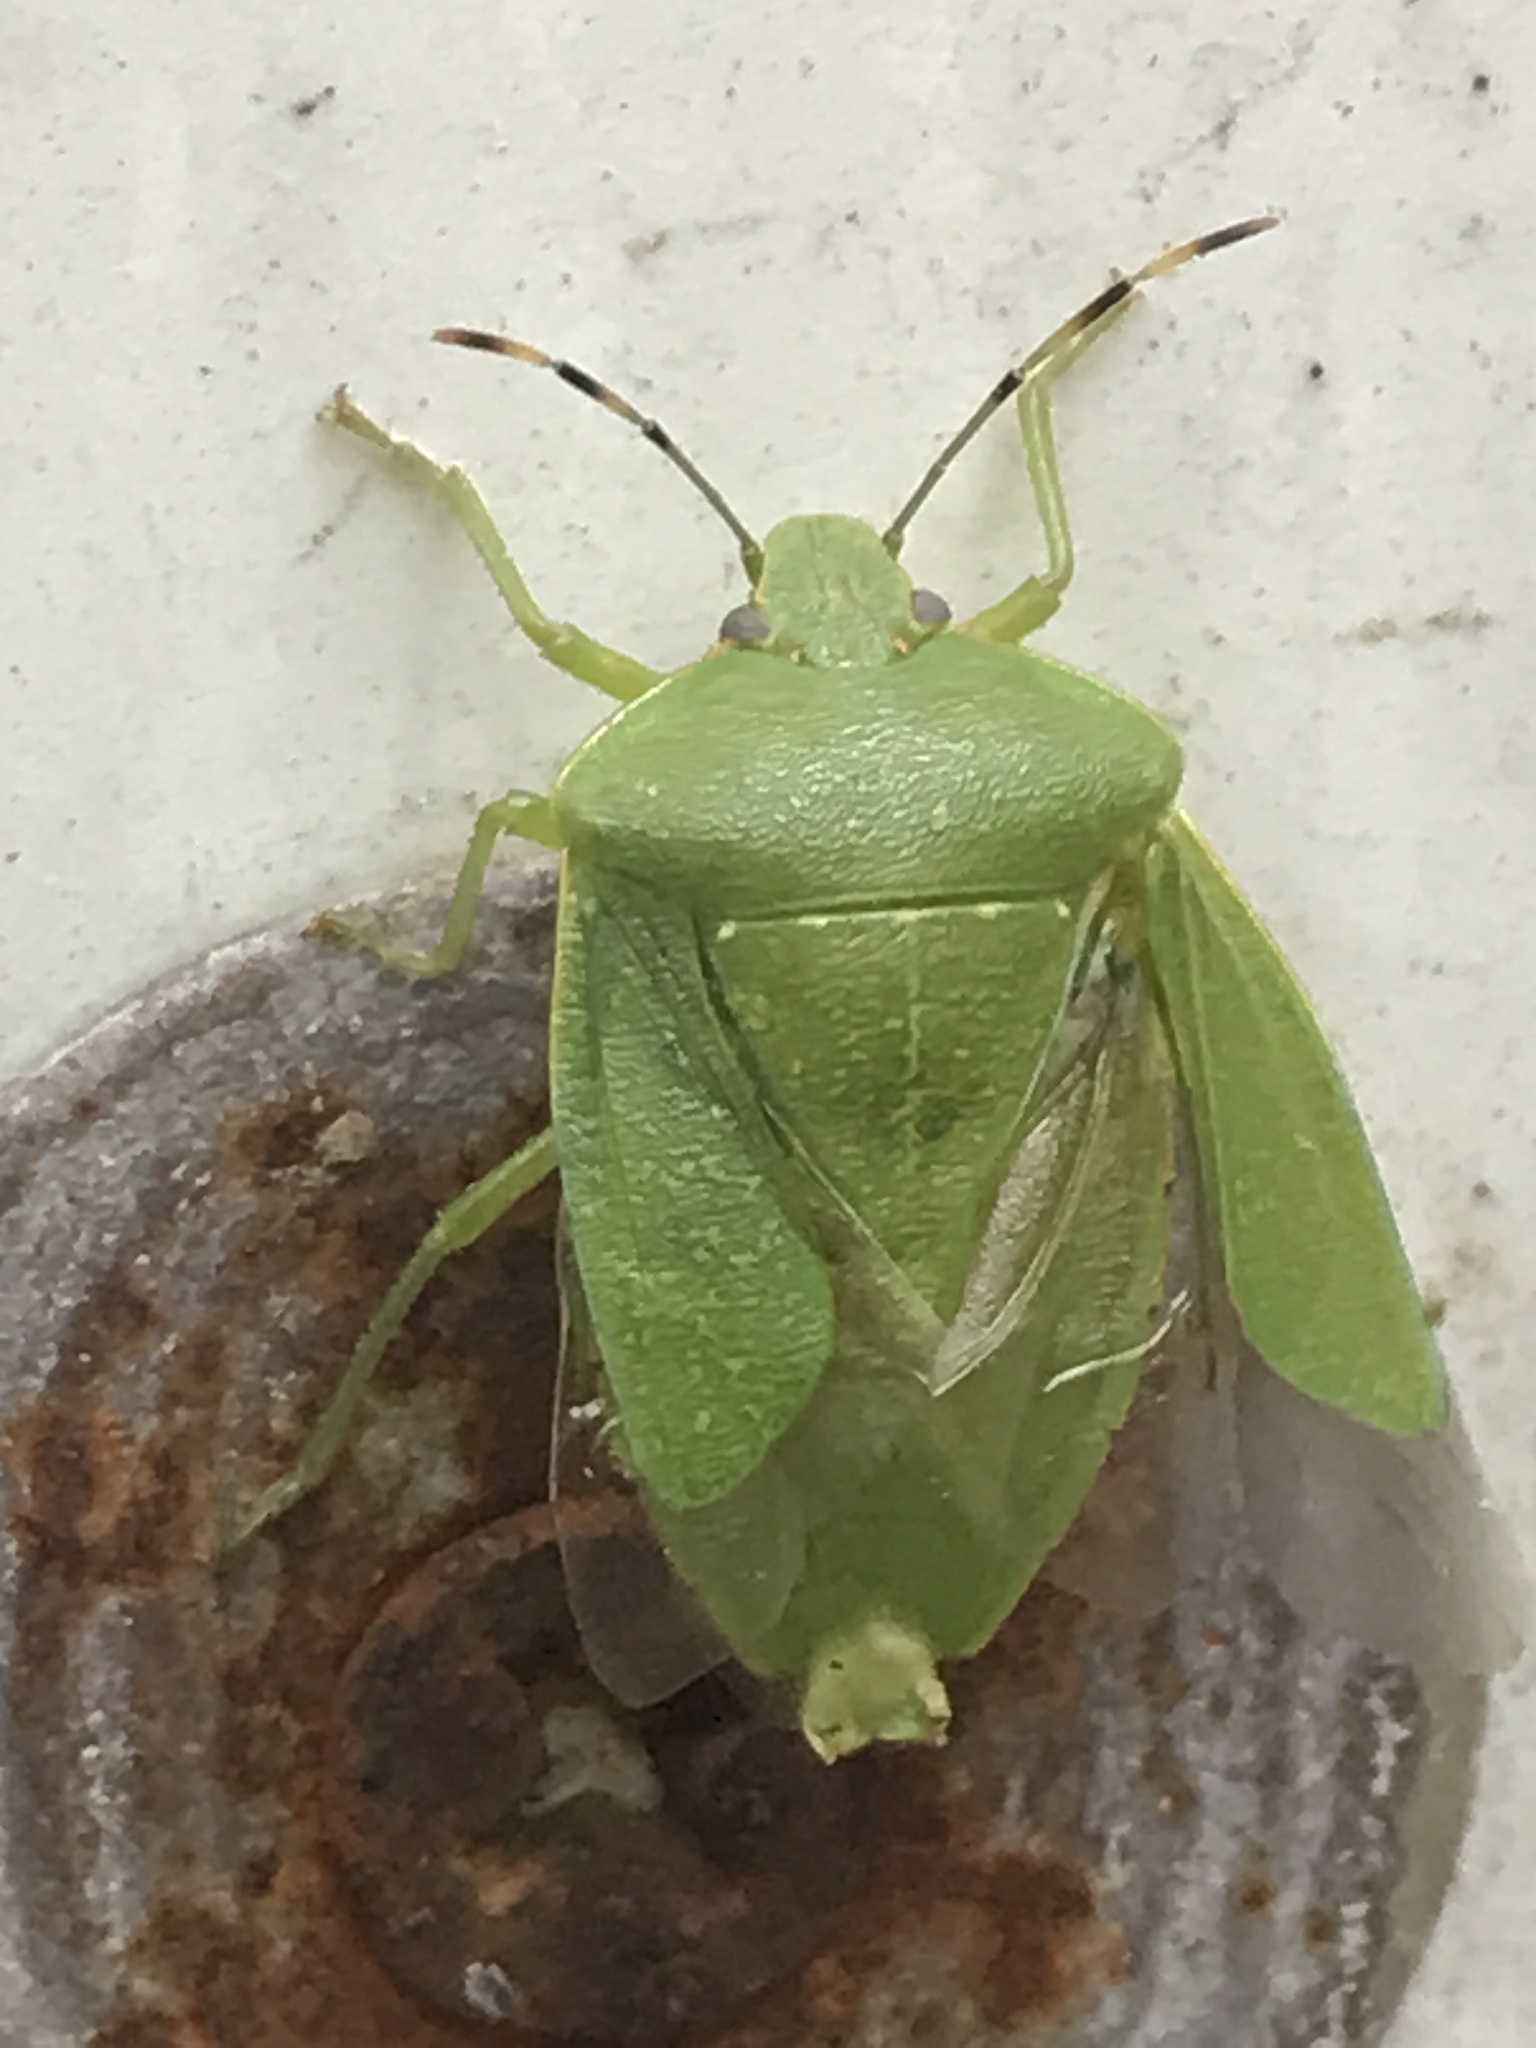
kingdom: Animalia
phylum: Arthropoda
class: Insecta
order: Hemiptera
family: Pentatomidae
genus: Chinavia
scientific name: Chinavia hilaris
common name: Green stink bug
